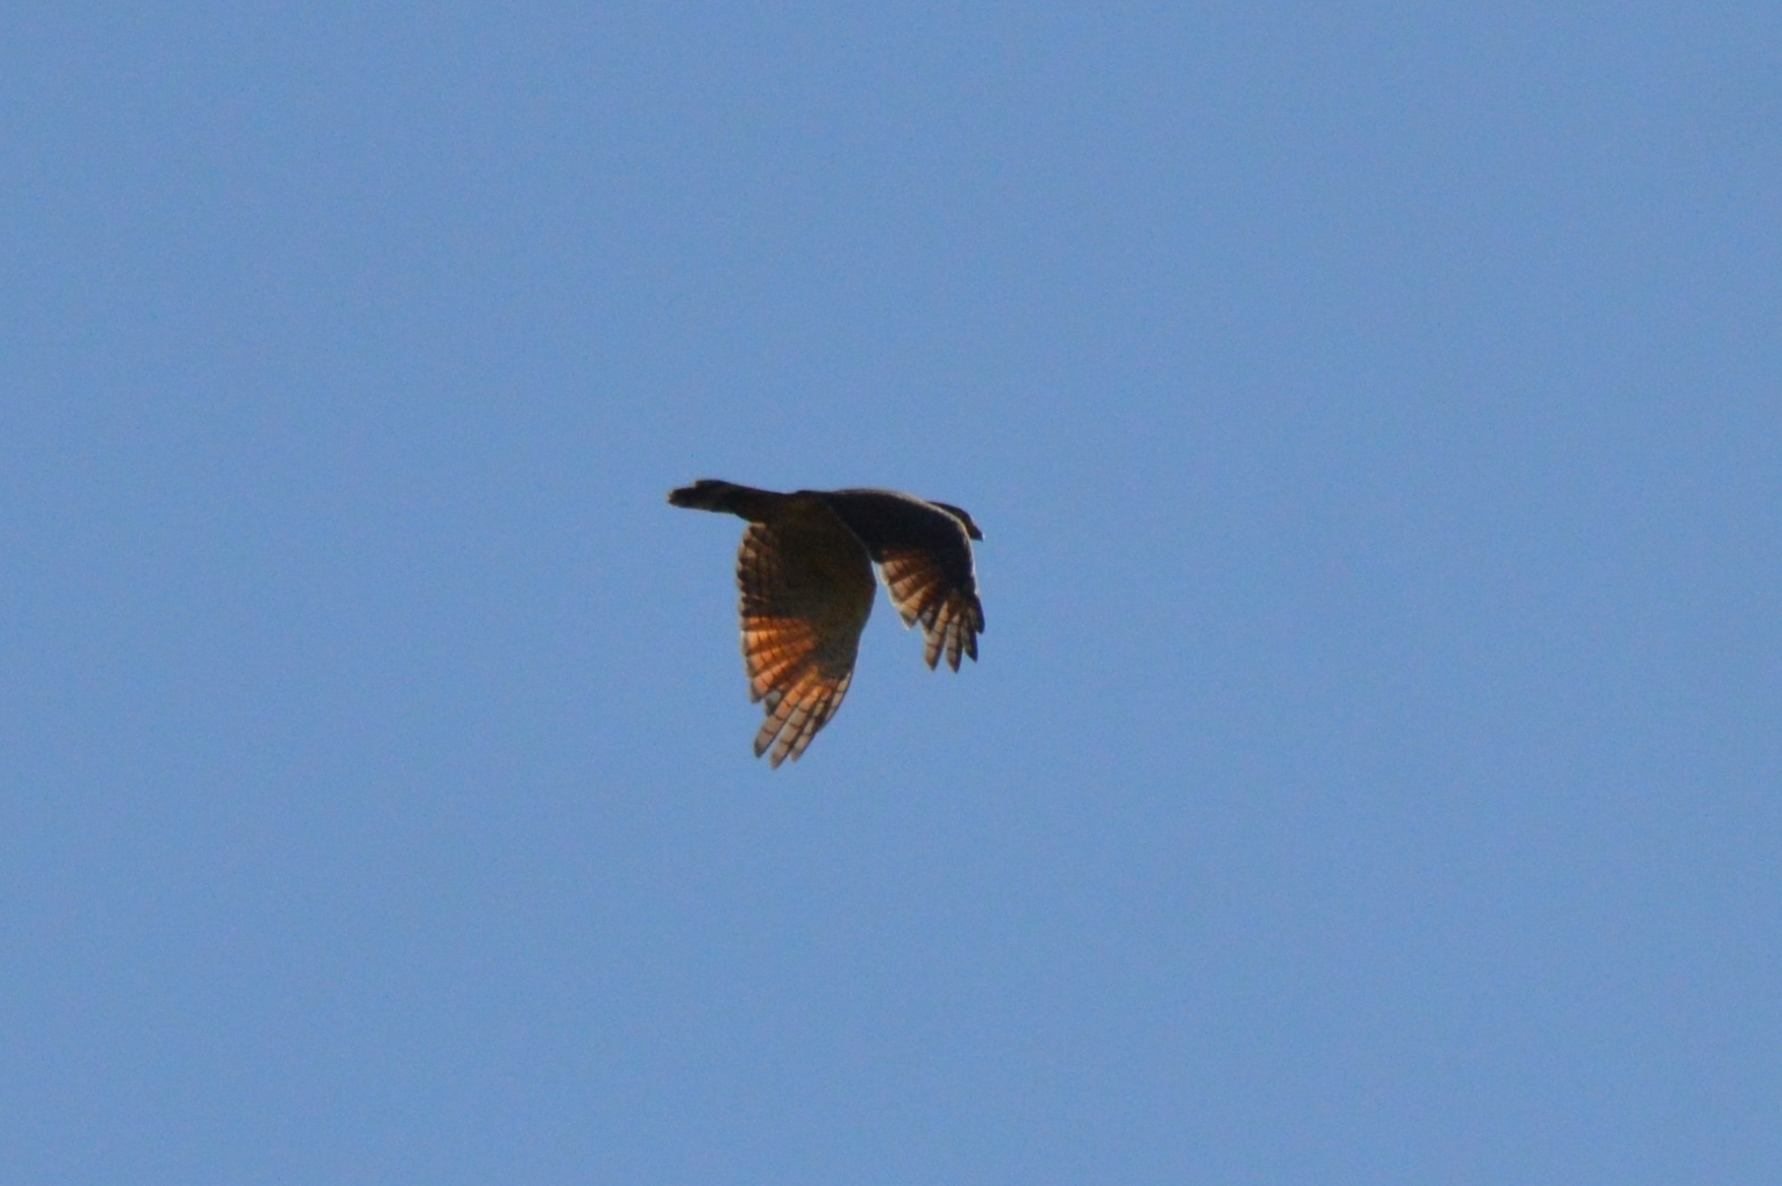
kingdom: Animalia
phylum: Chordata
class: Aves
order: Accipitriformes
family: Accipitridae
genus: Rupornis
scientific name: Rupornis magnirostris
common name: Roadside hawk
